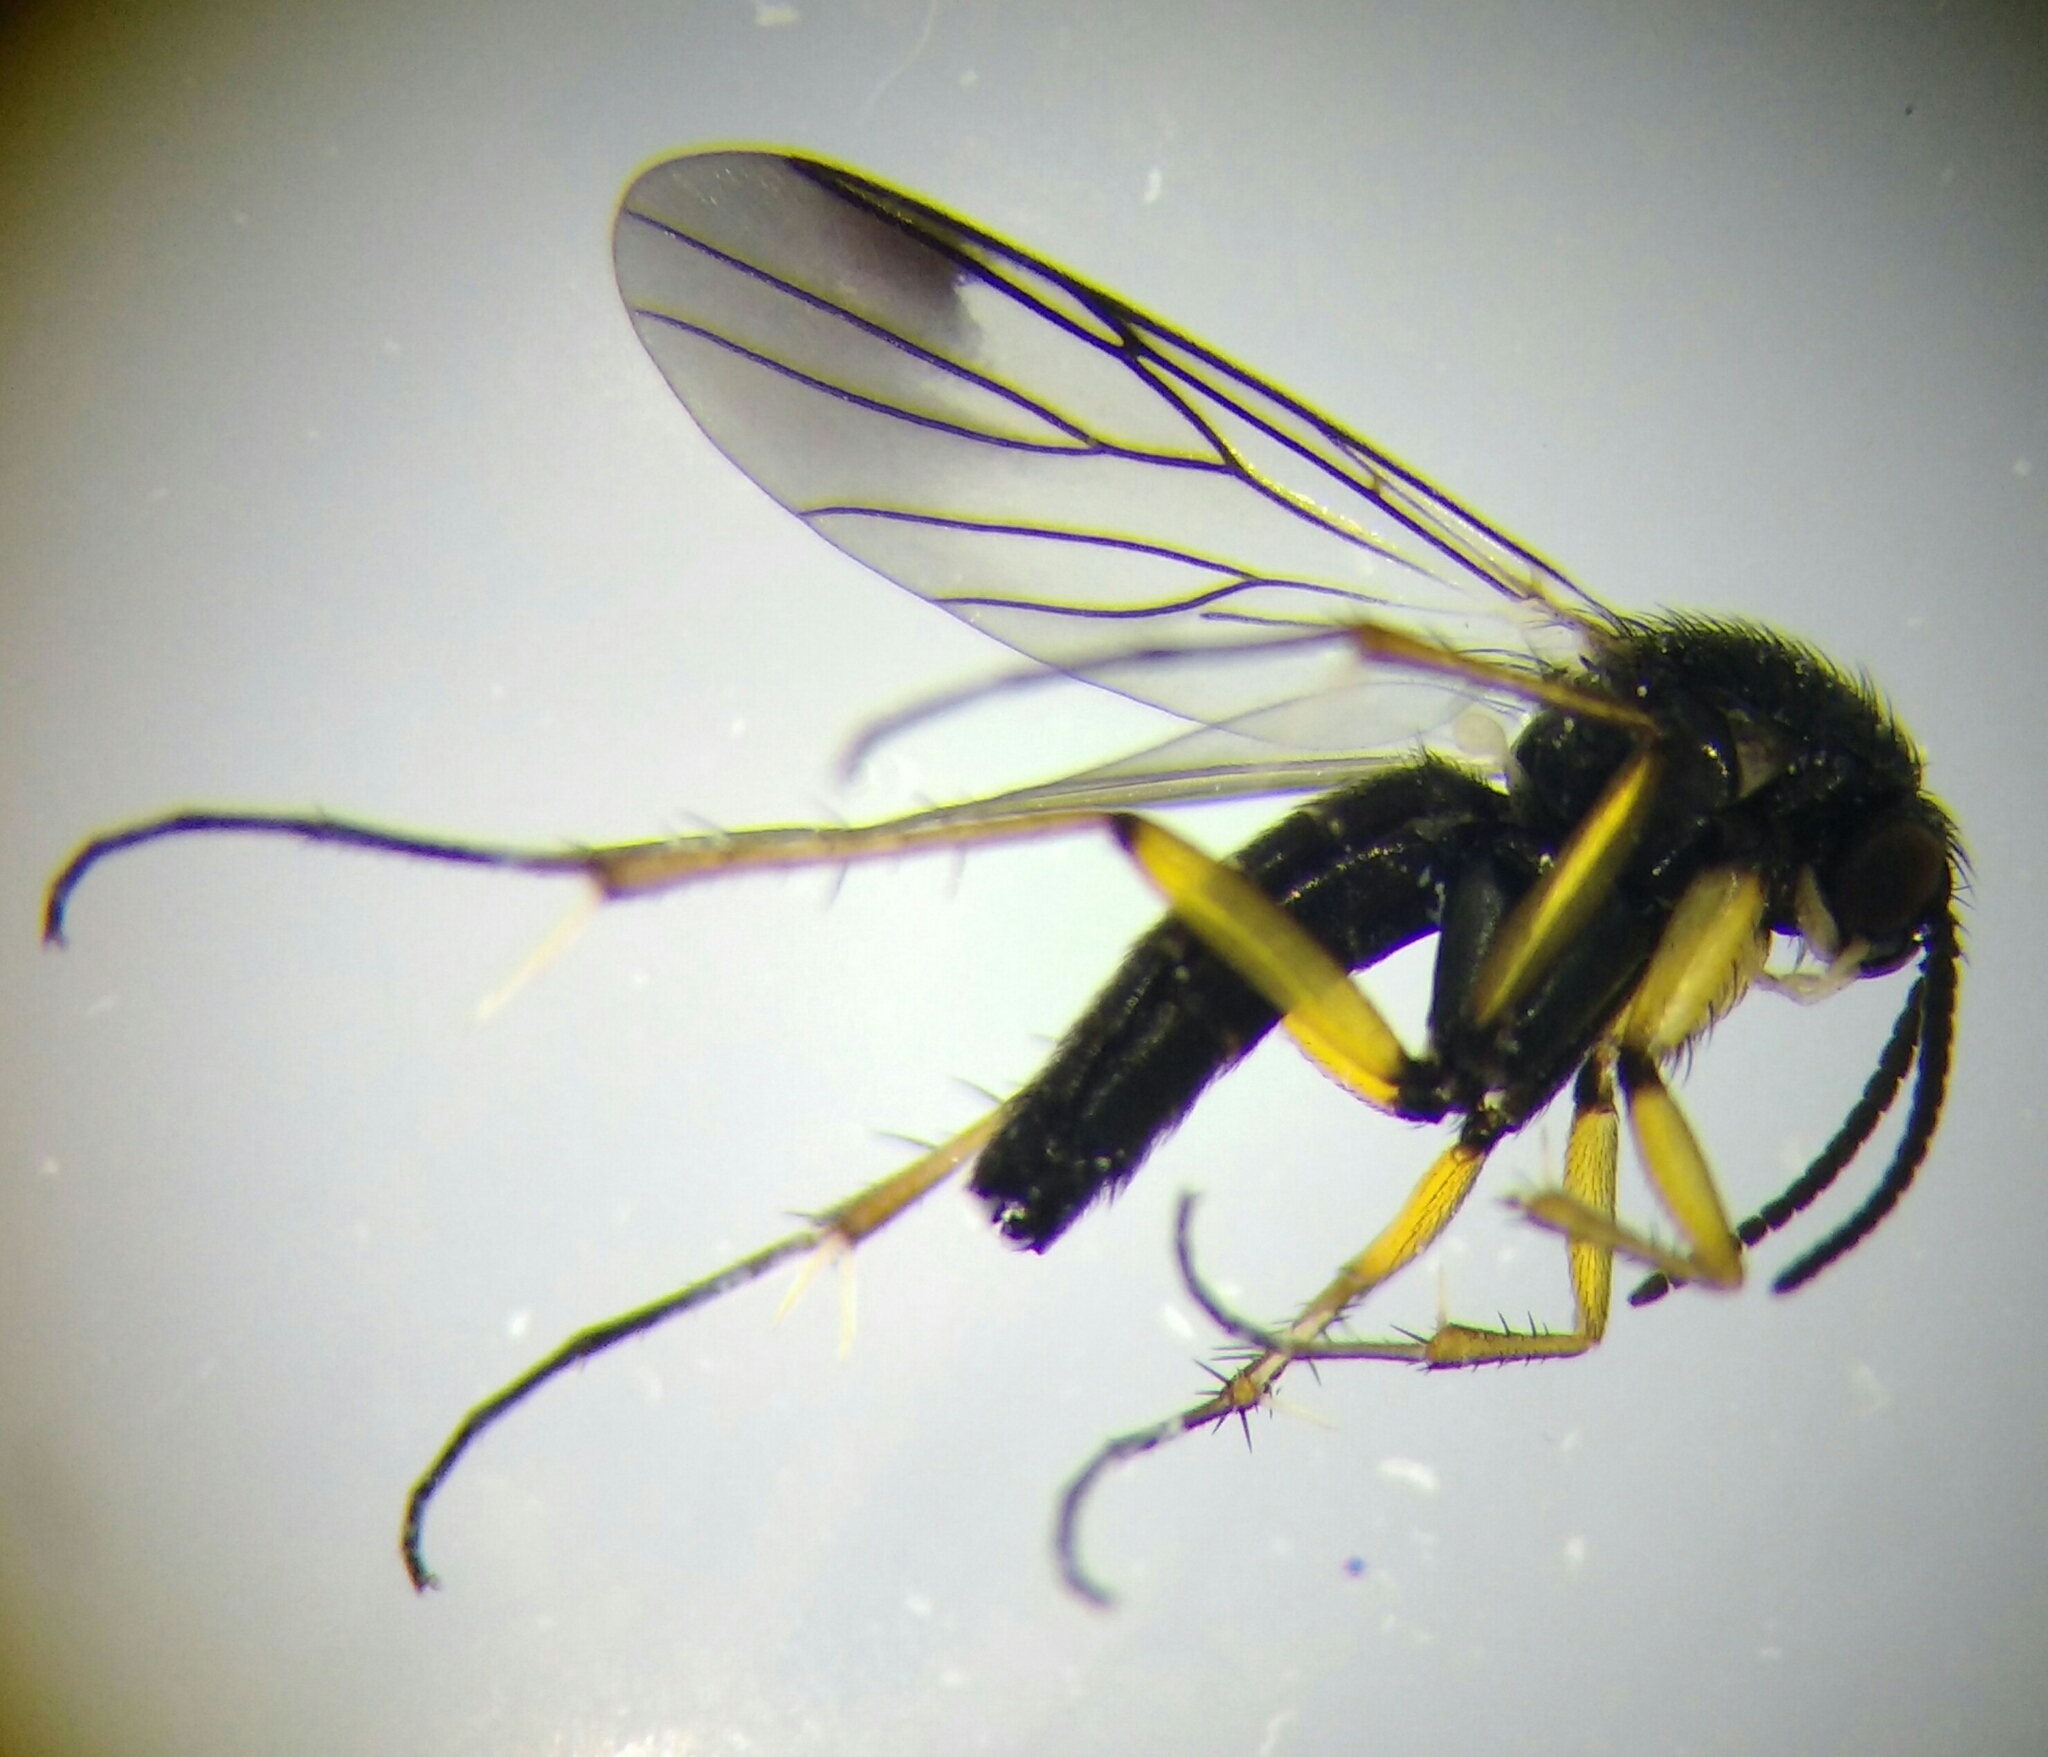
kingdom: Animalia
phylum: Arthropoda
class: Insecta
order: Diptera
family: Mycetophilidae
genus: Greenomyia
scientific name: Greenomyia mongolica
